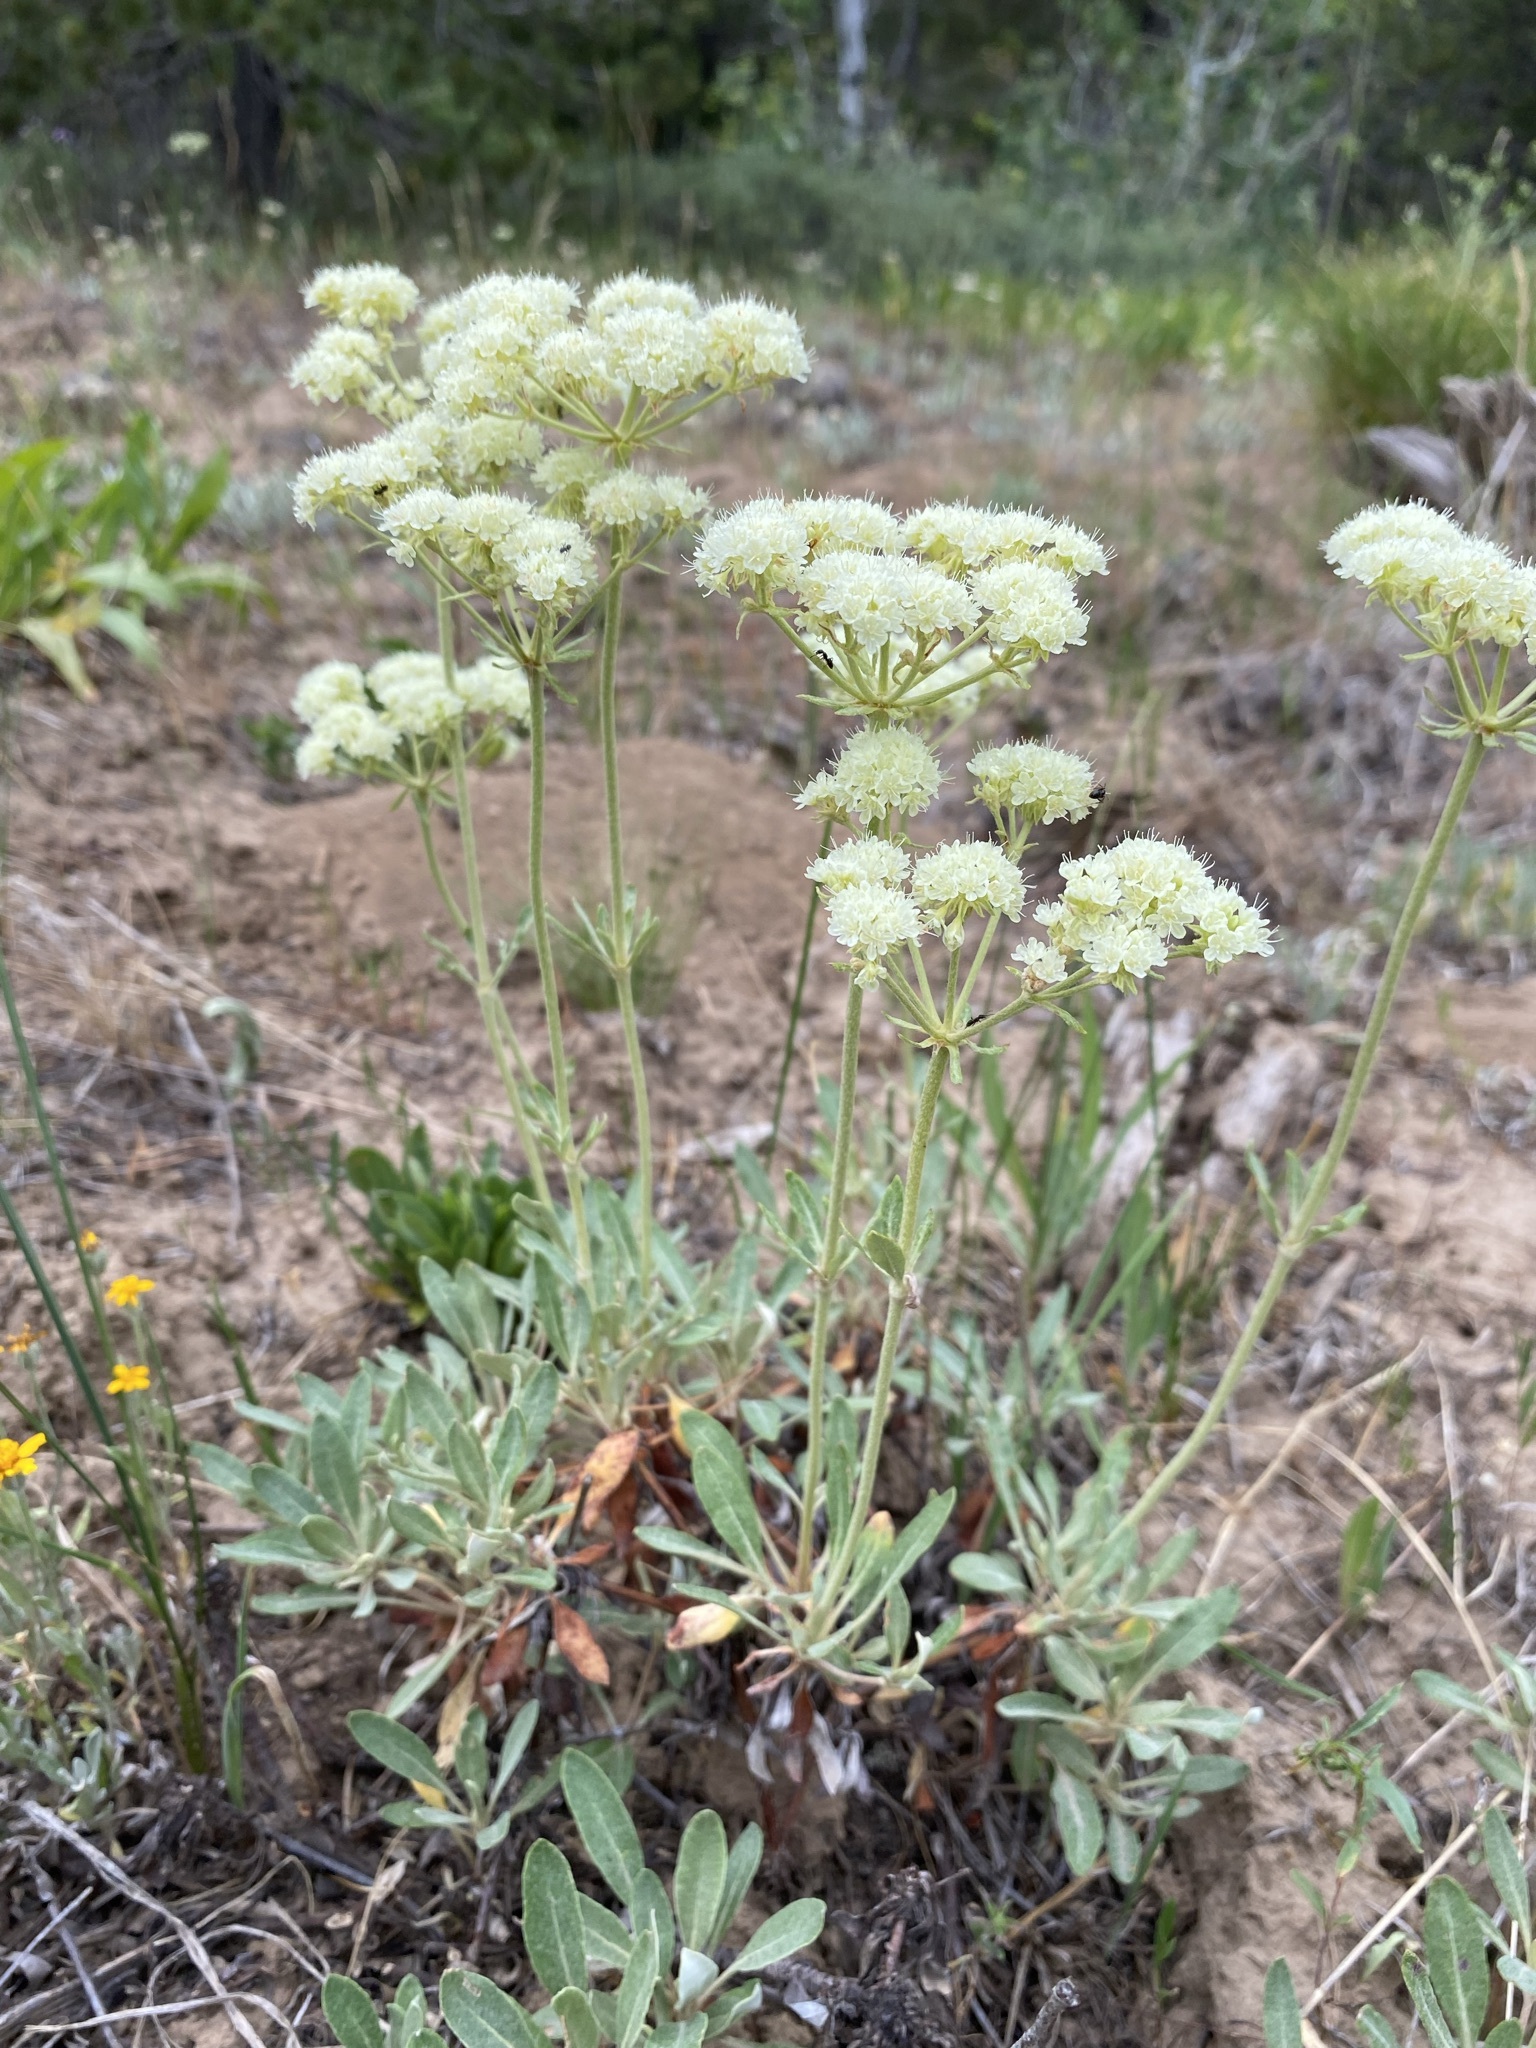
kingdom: Plantae
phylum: Tracheophyta
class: Magnoliopsida
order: Caryophyllales
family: Polygonaceae
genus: Eriogonum
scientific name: Eriogonum heracleoides
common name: Wyeth's buckwheat
